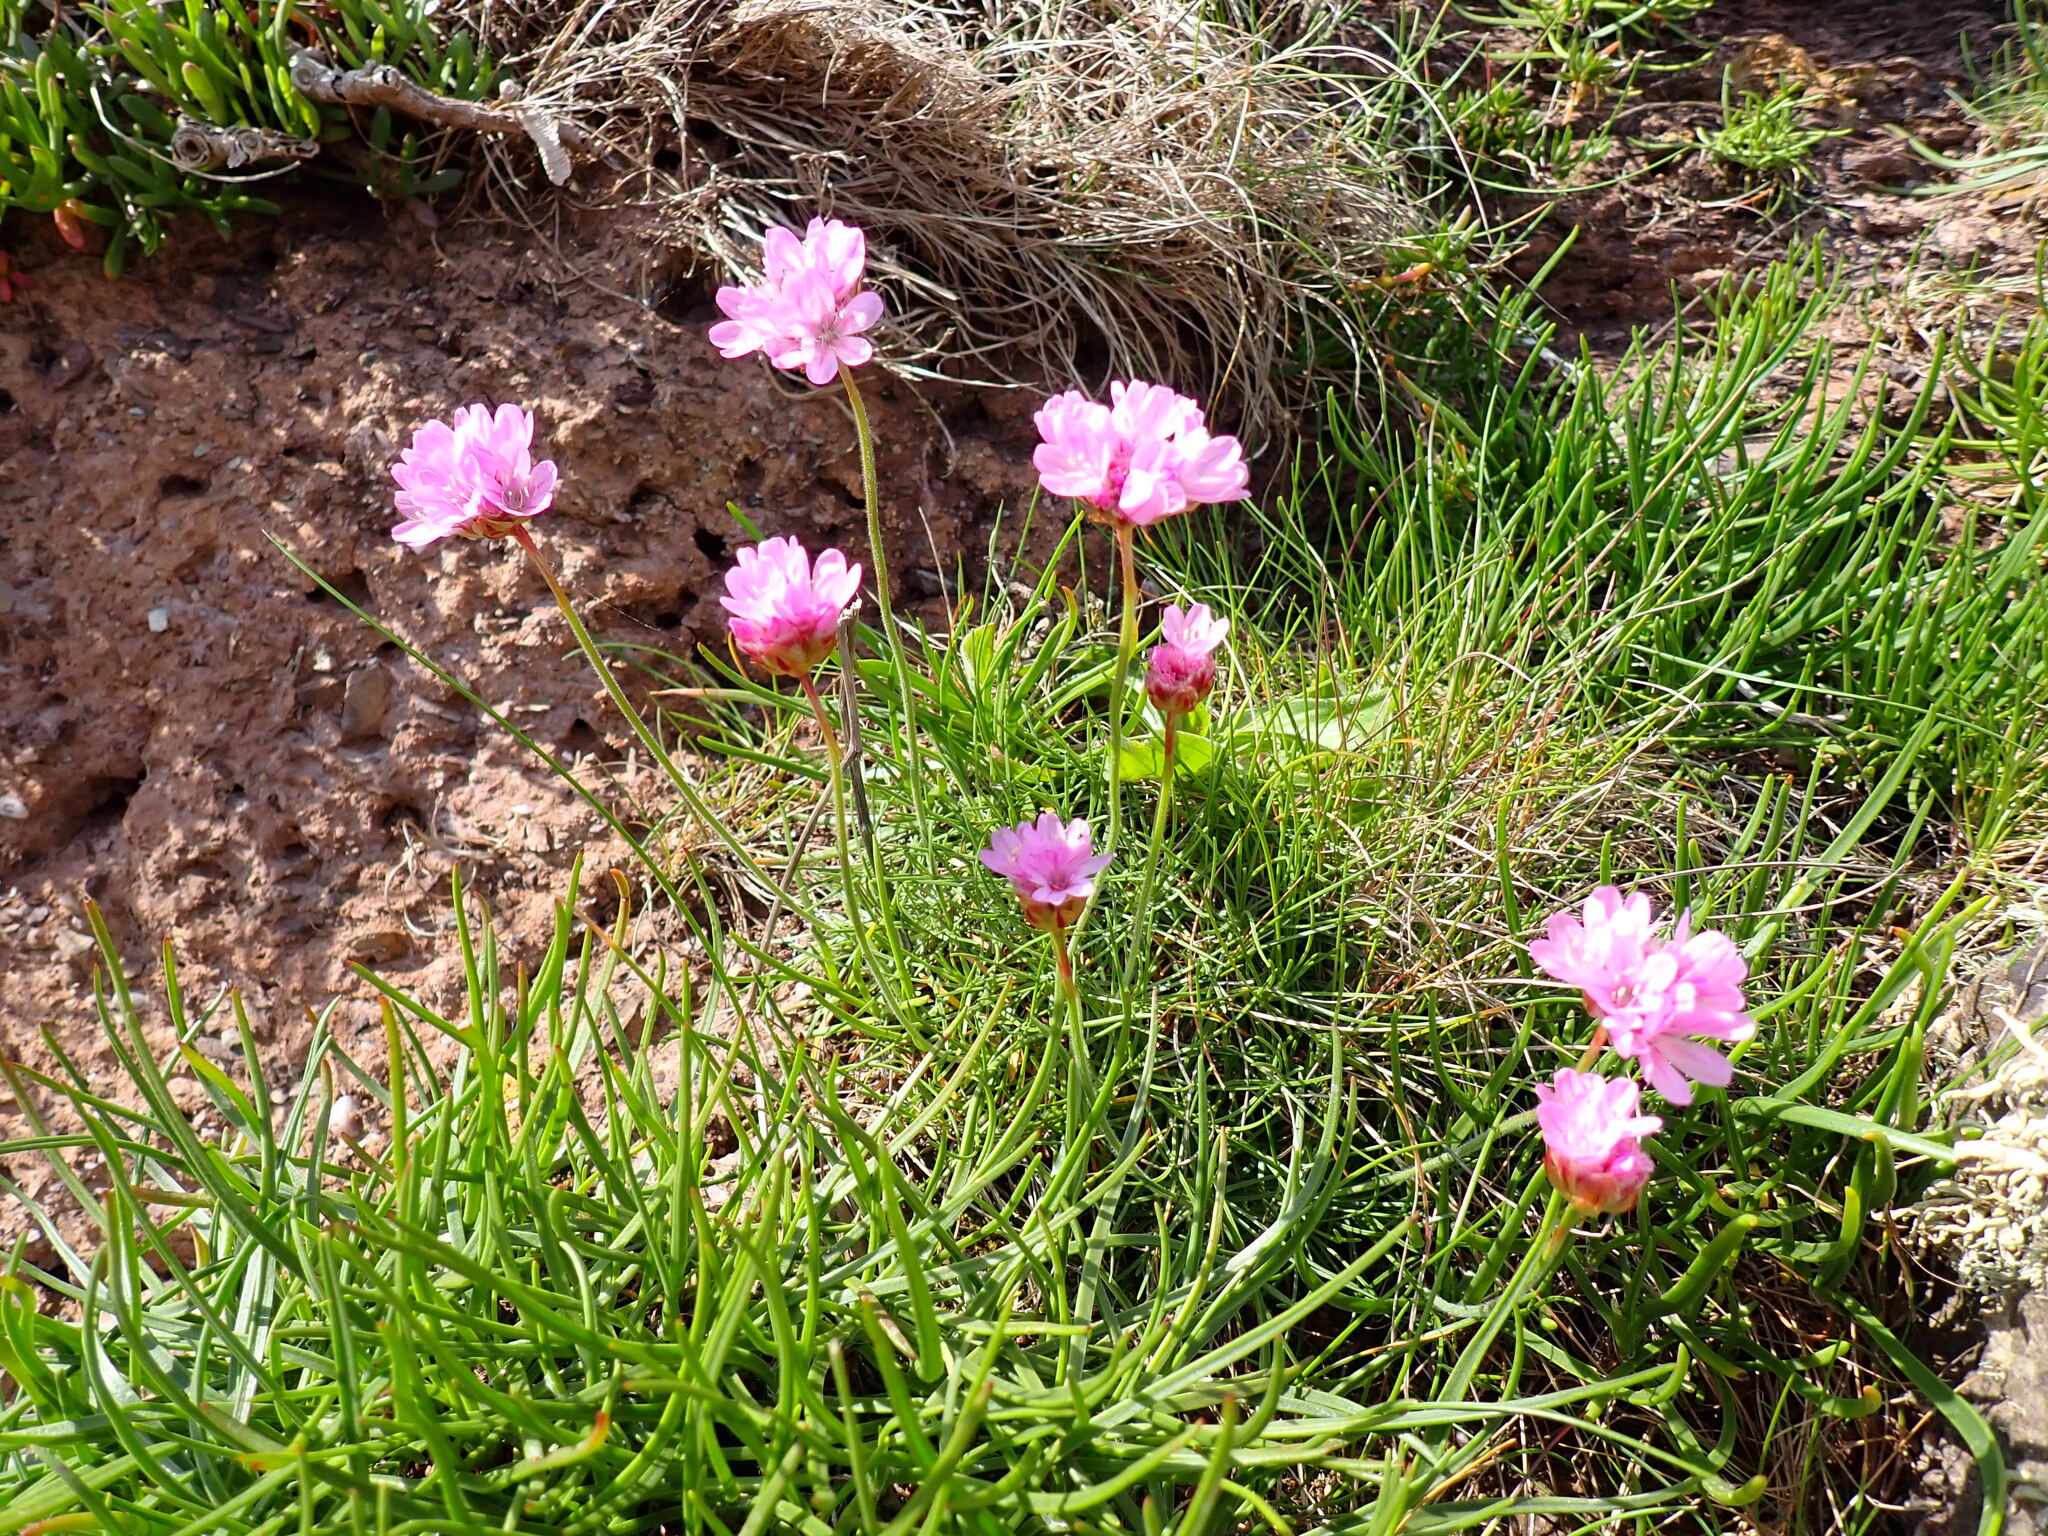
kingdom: Plantae
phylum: Tracheophyta
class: Magnoliopsida
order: Caryophyllales
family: Plumbaginaceae
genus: Armeria
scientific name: Armeria maritima
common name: Thrift
